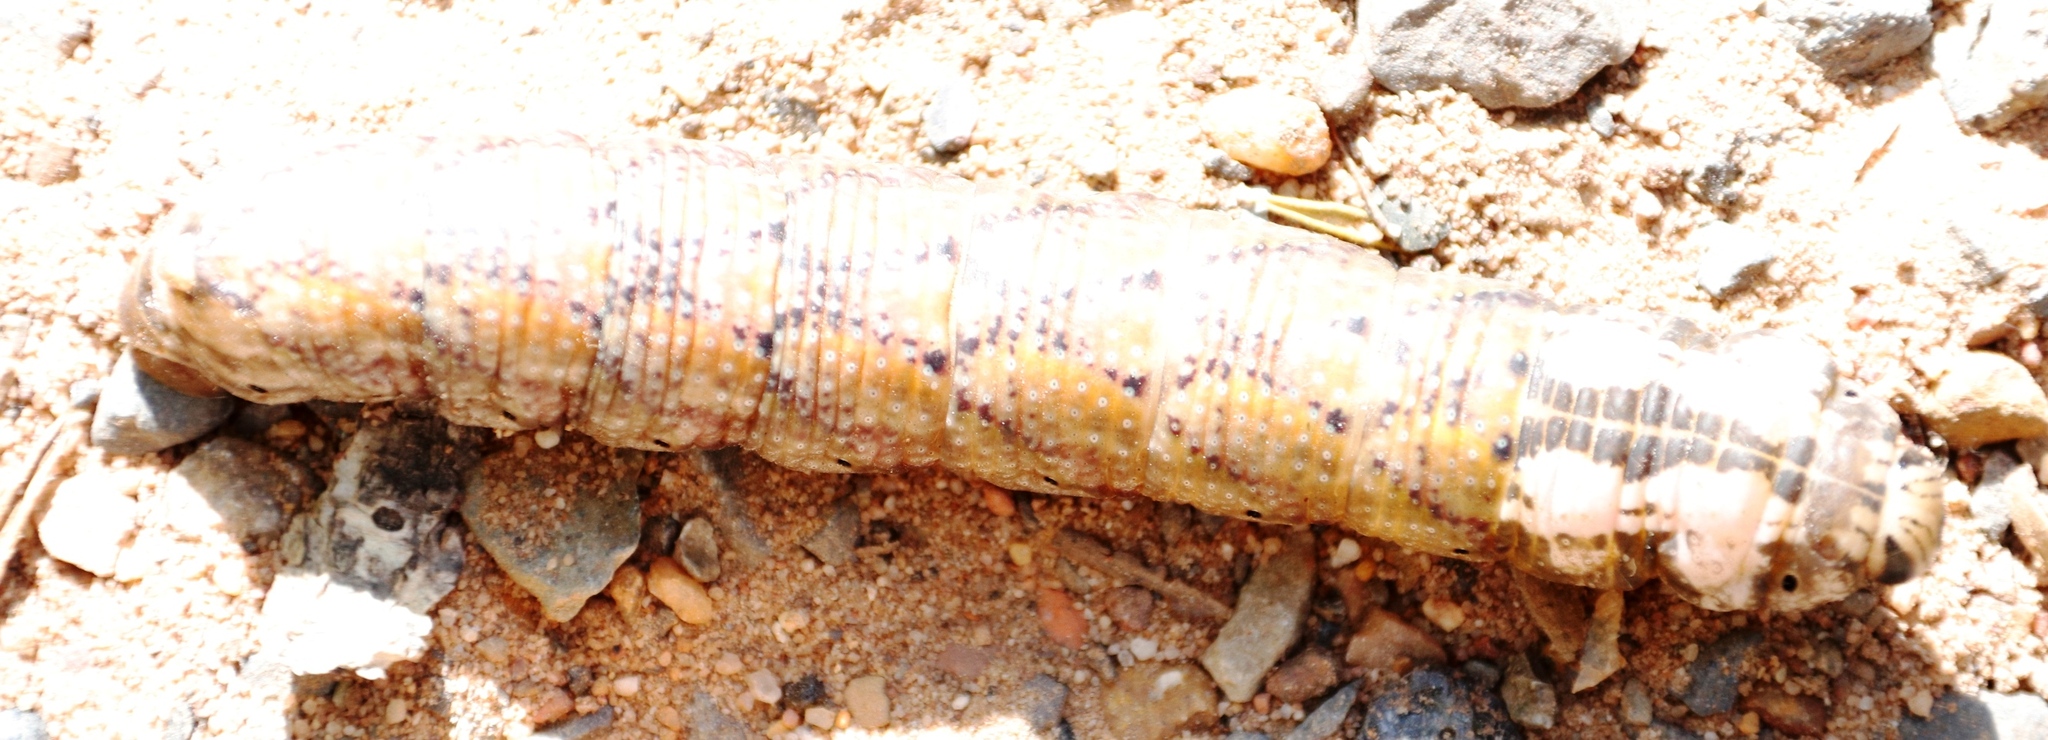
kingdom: Animalia
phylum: Arthropoda
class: Insecta
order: Lepidoptera
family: Sphingidae
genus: Acherontia
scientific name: Acherontia atropos
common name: Death's-head hawk moth
